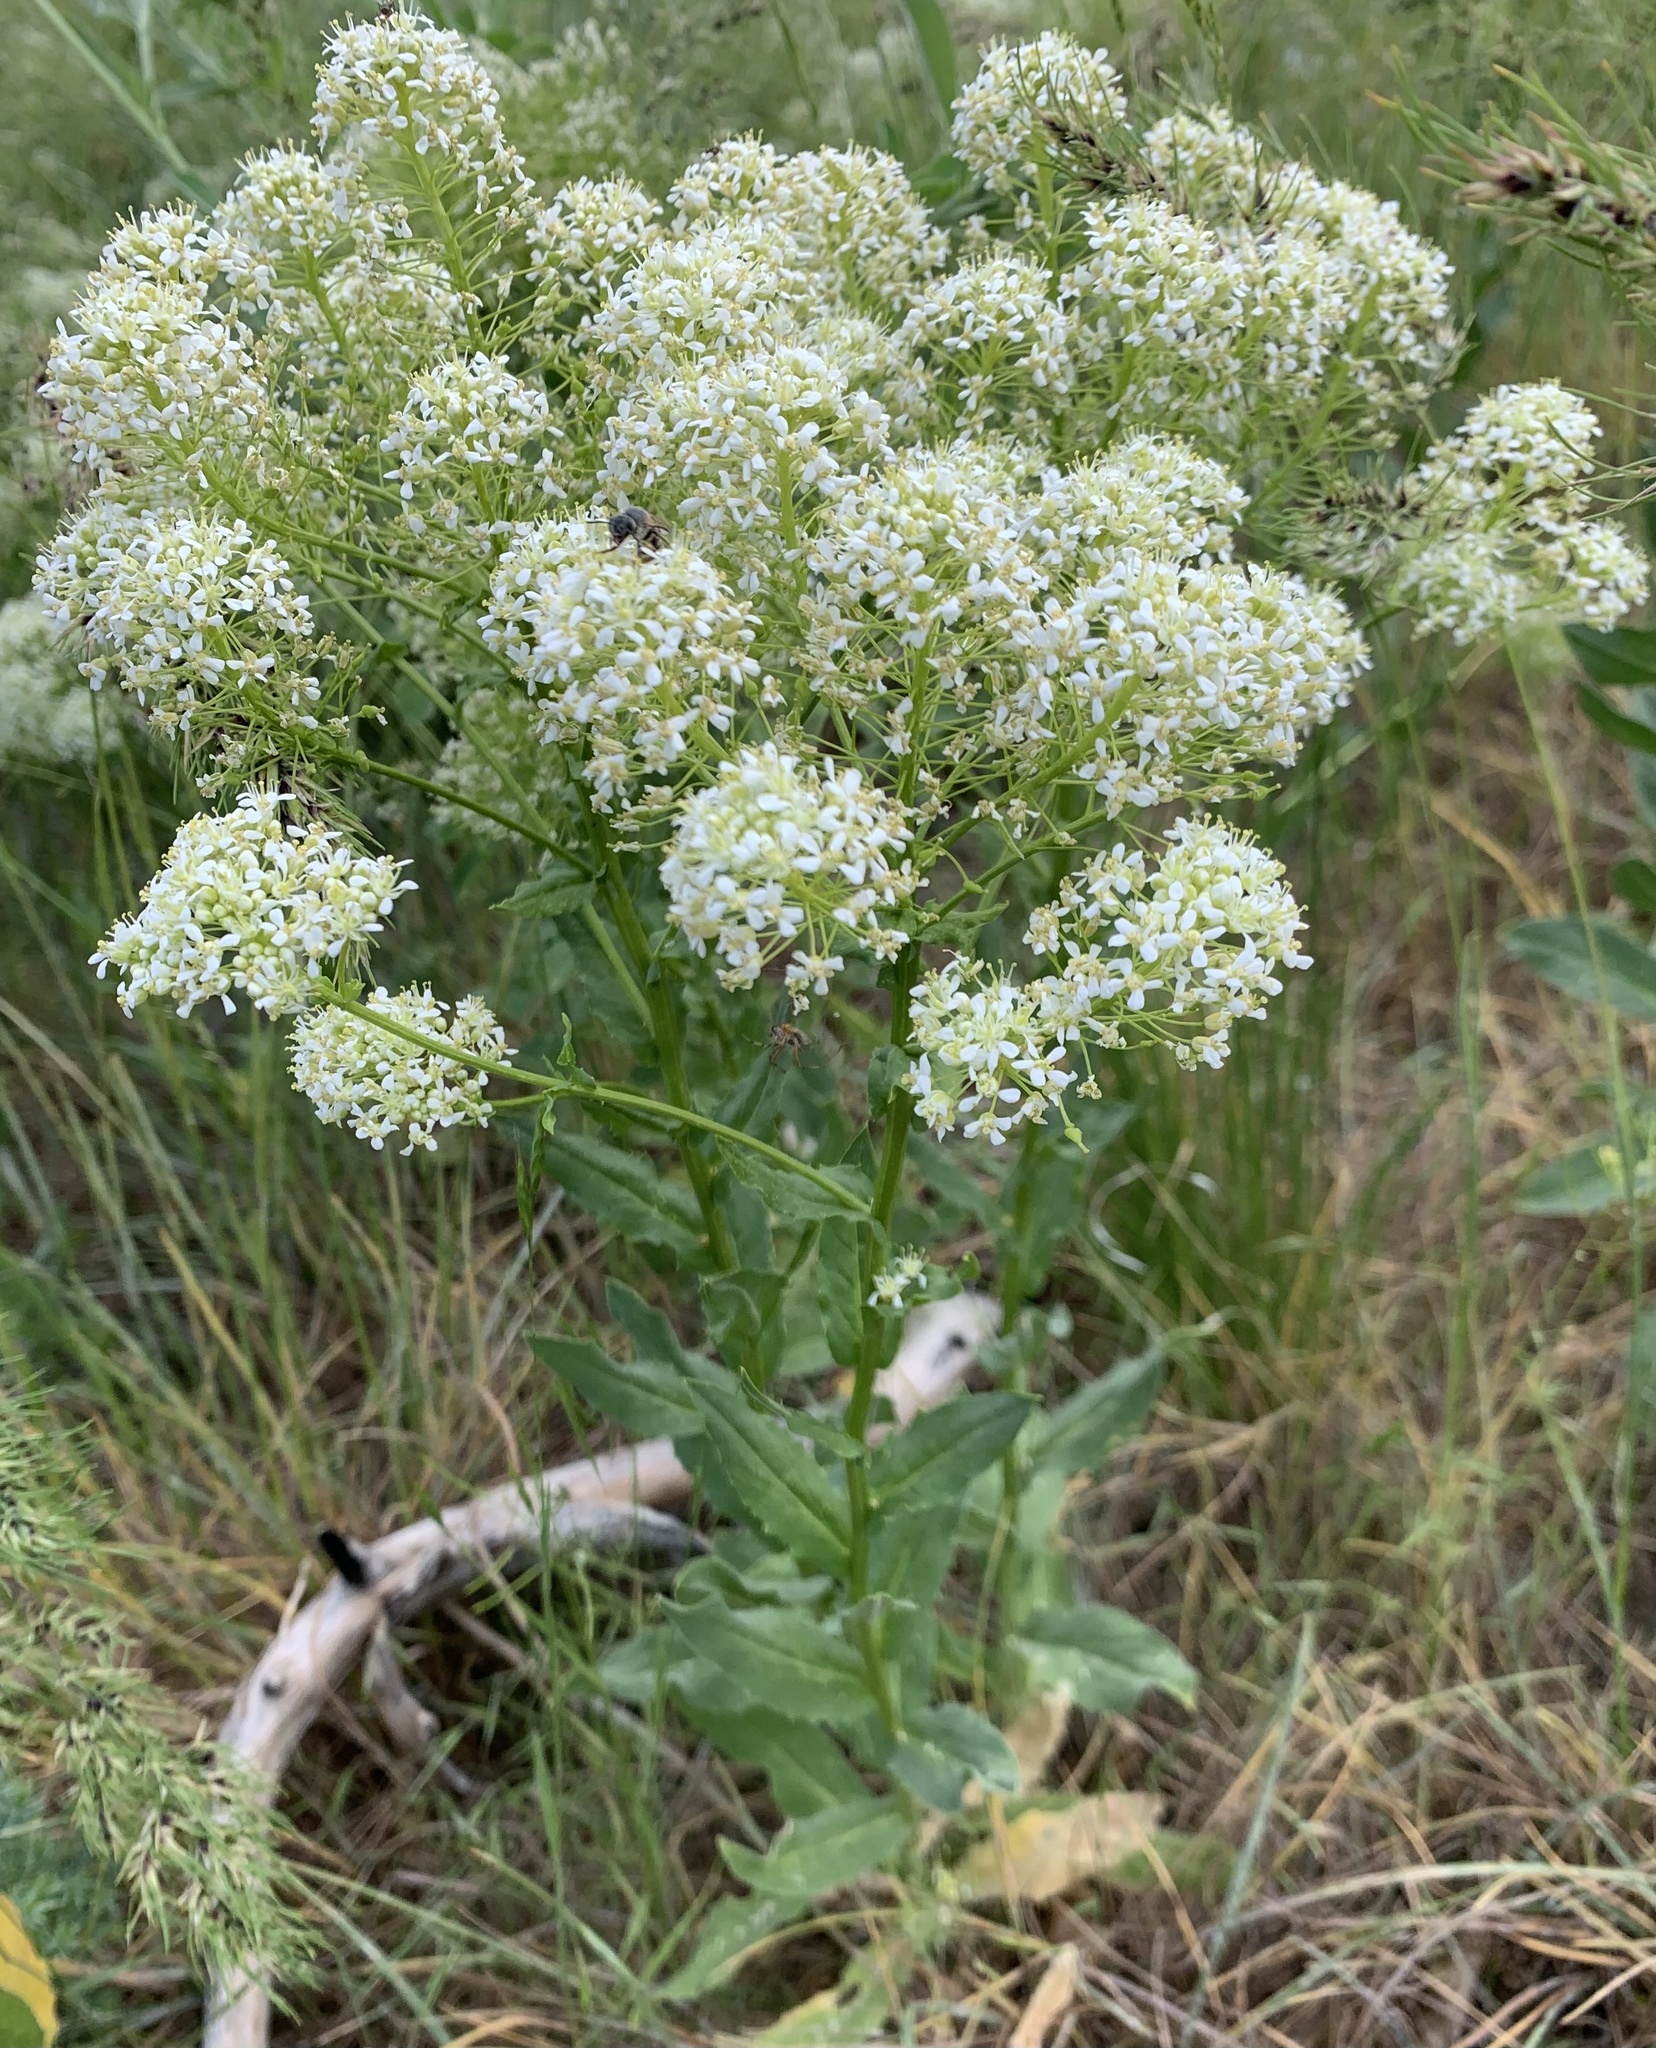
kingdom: Plantae
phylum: Tracheophyta
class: Magnoliopsida
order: Brassicales
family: Brassicaceae
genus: Lepidium
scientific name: Lepidium draba
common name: Hoary cress
